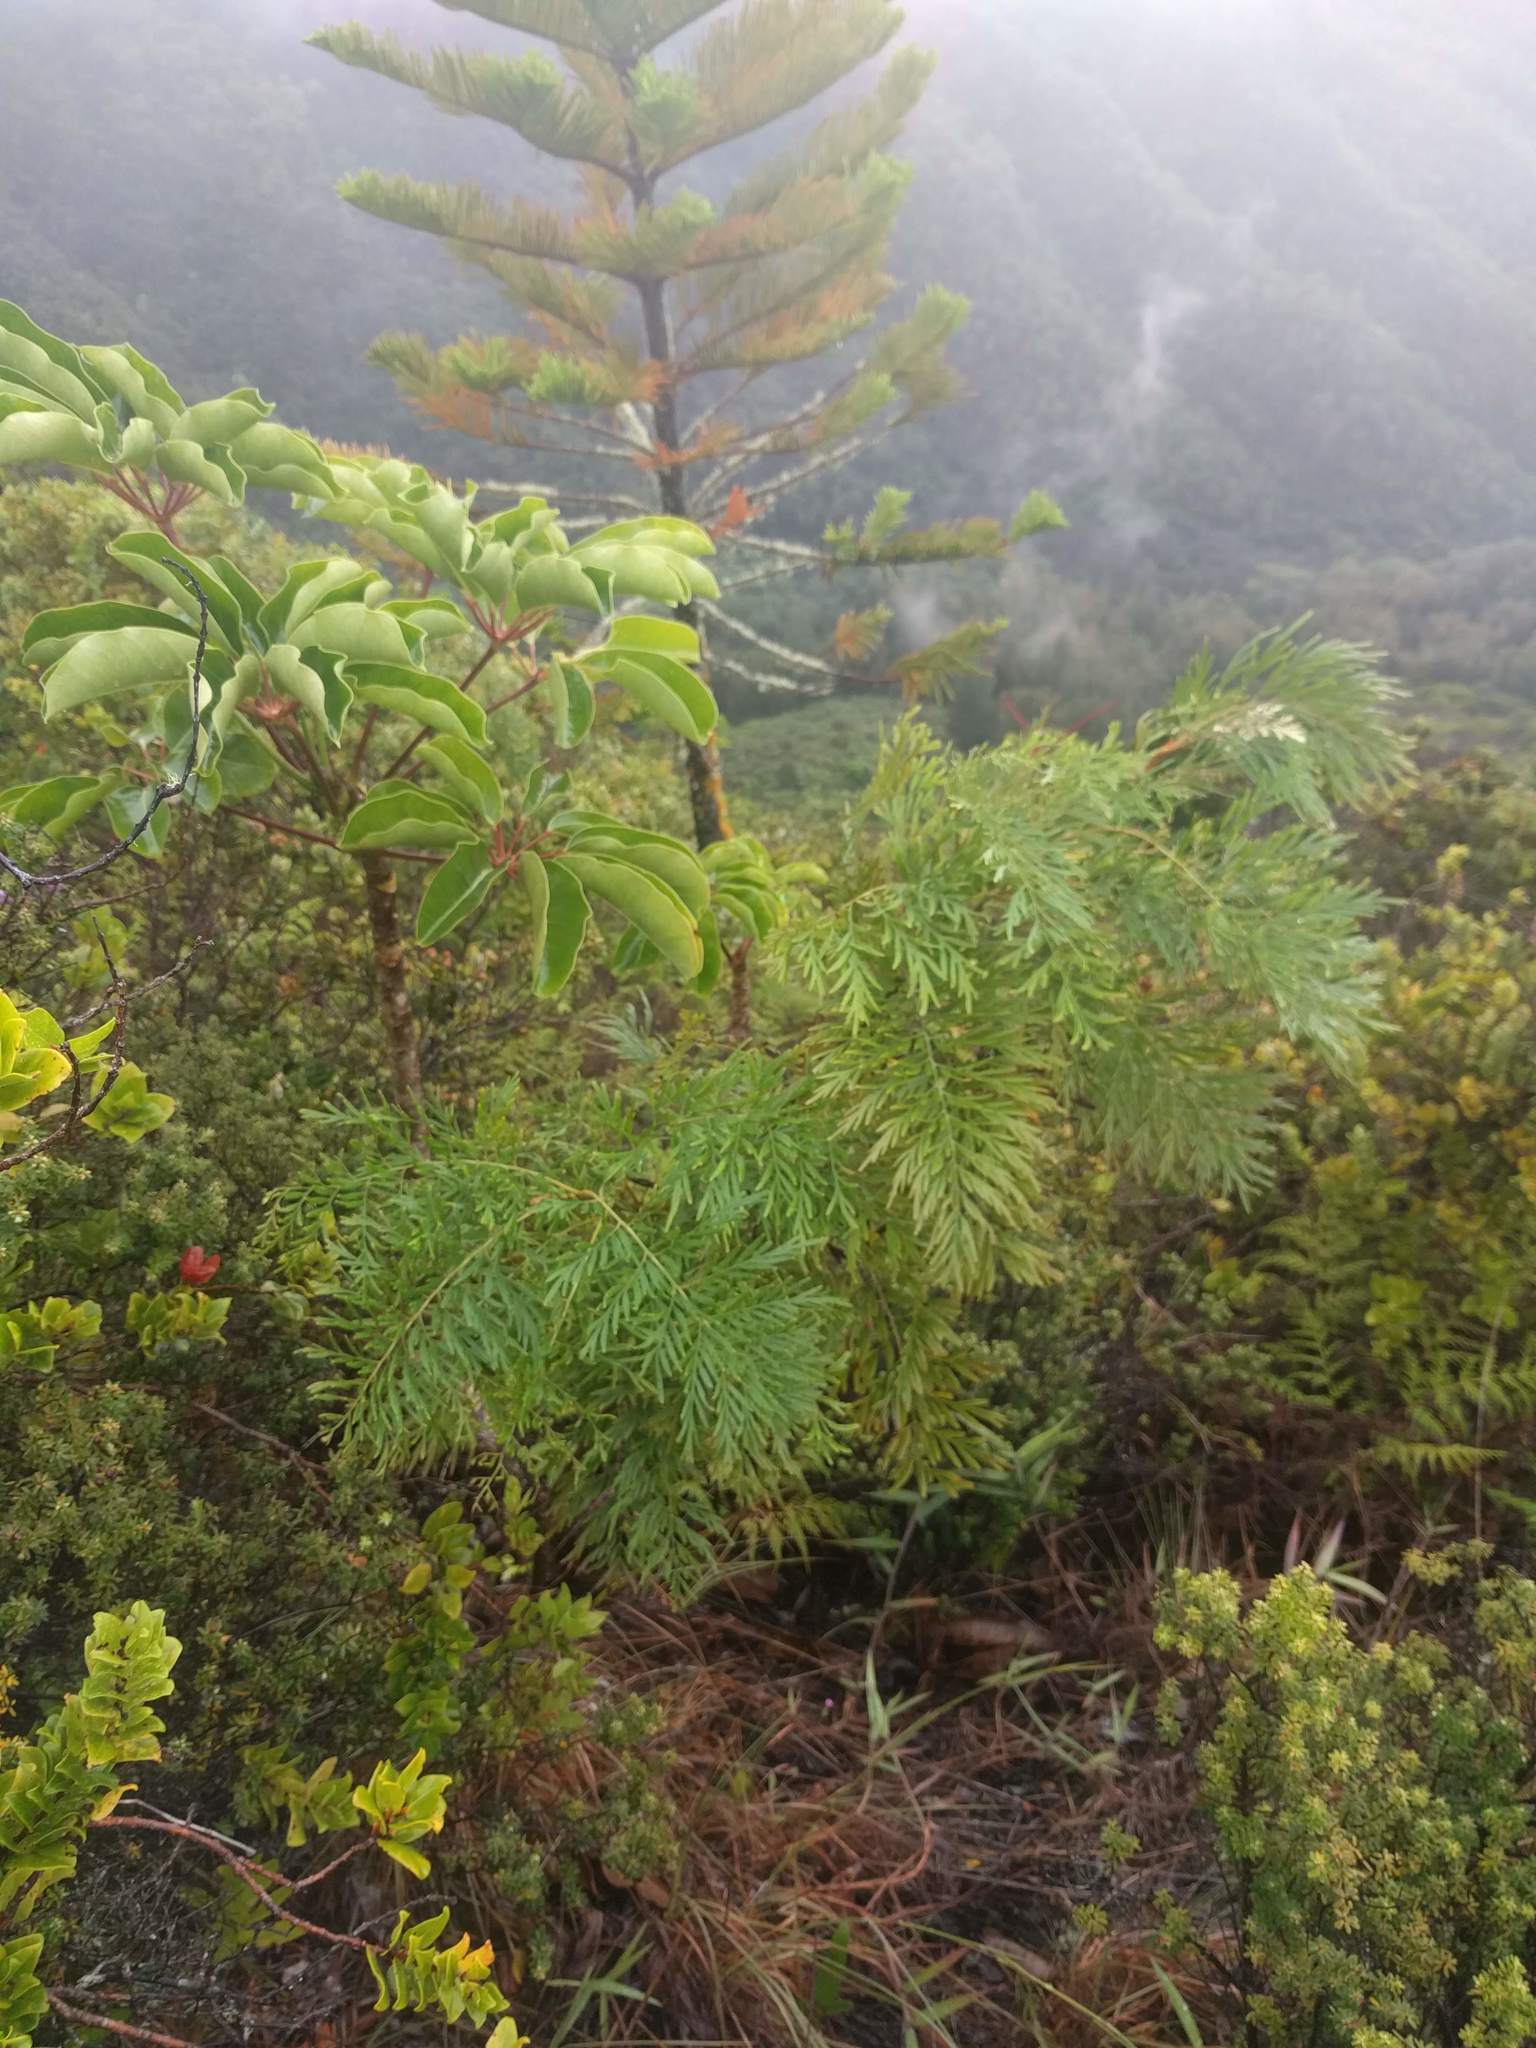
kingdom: Plantae
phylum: Tracheophyta
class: Magnoliopsida
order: Proteales
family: Proteaceae
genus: Grevillea
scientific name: Grevillea robusta
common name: Silkoak
